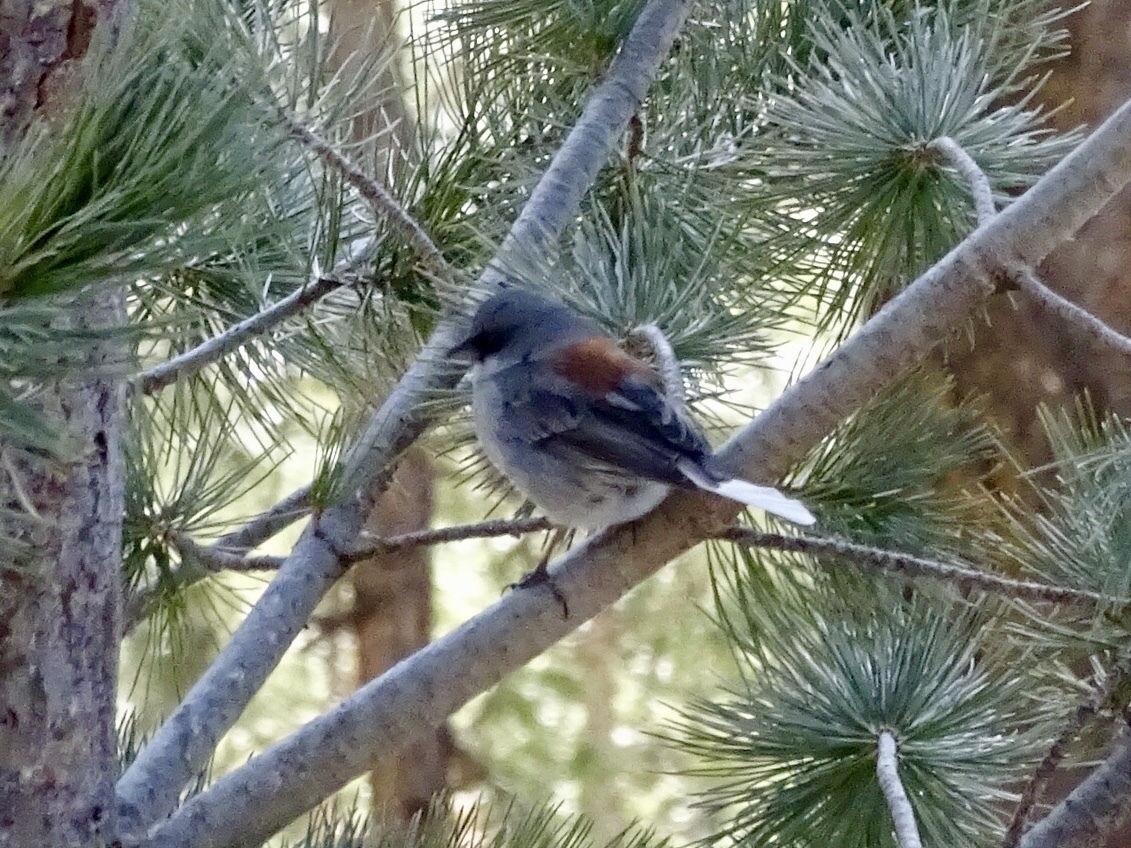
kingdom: Animalia
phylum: Chordata
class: Aves
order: Passeriformes
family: Passerellidae
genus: Junco
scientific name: Junco hyemalis
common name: Dark-eyed junco
